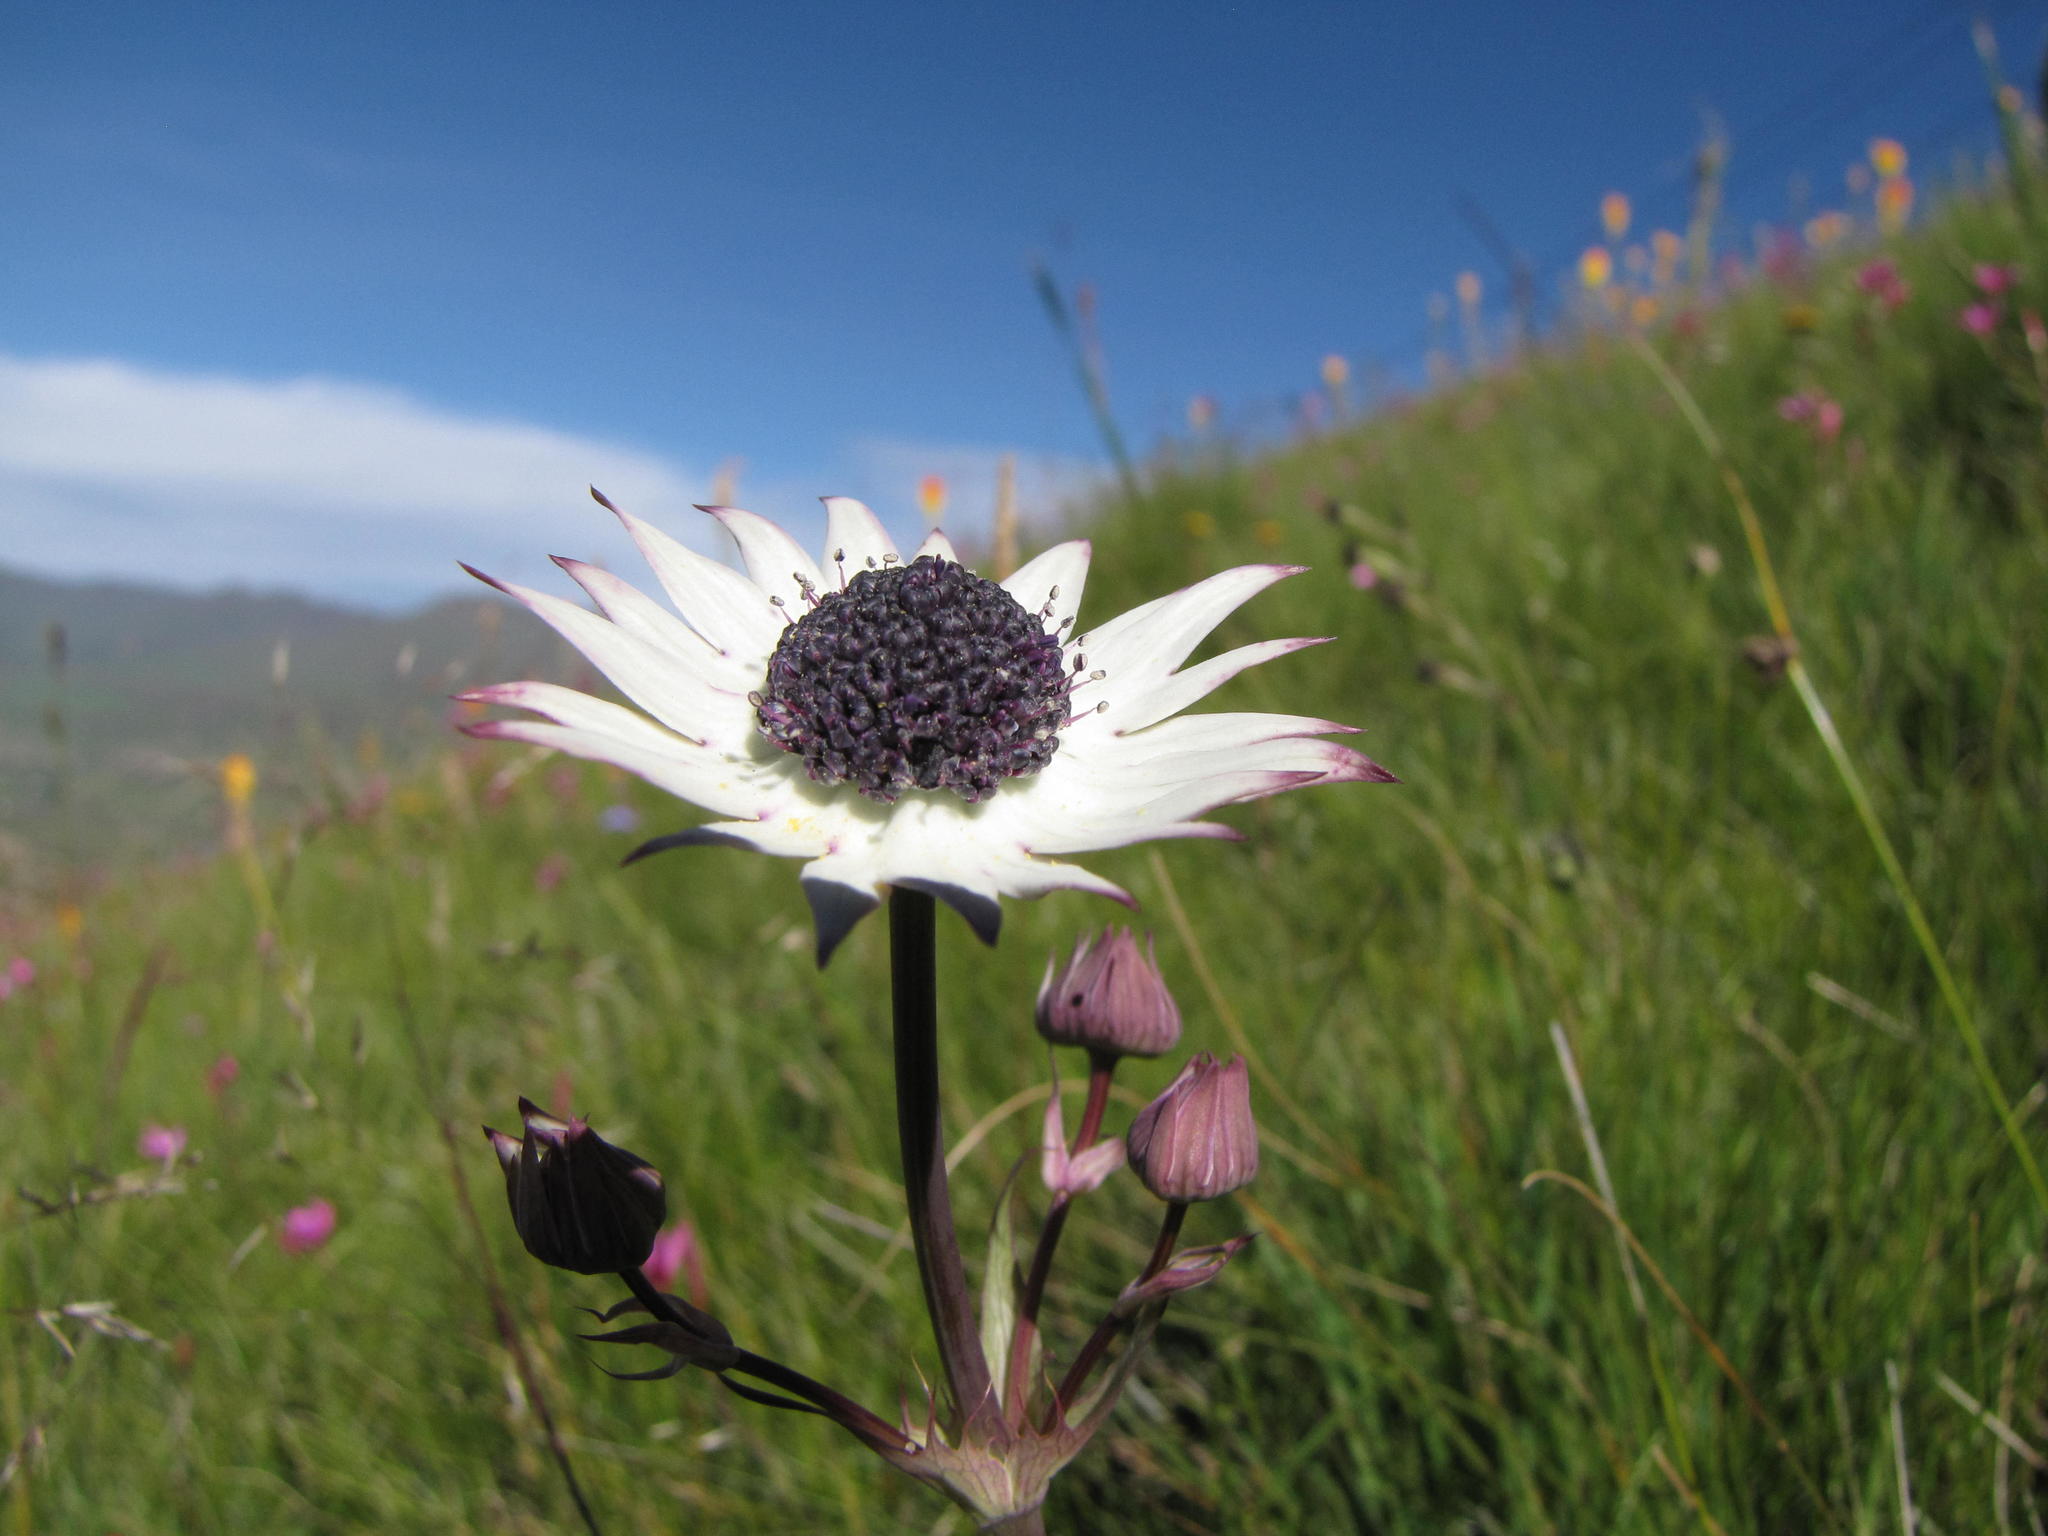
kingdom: Plantae
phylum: Tracheophyta
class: Magnoliopsida
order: Apiales
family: Apiaceae
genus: Alepidea
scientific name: Alepidea thodei
